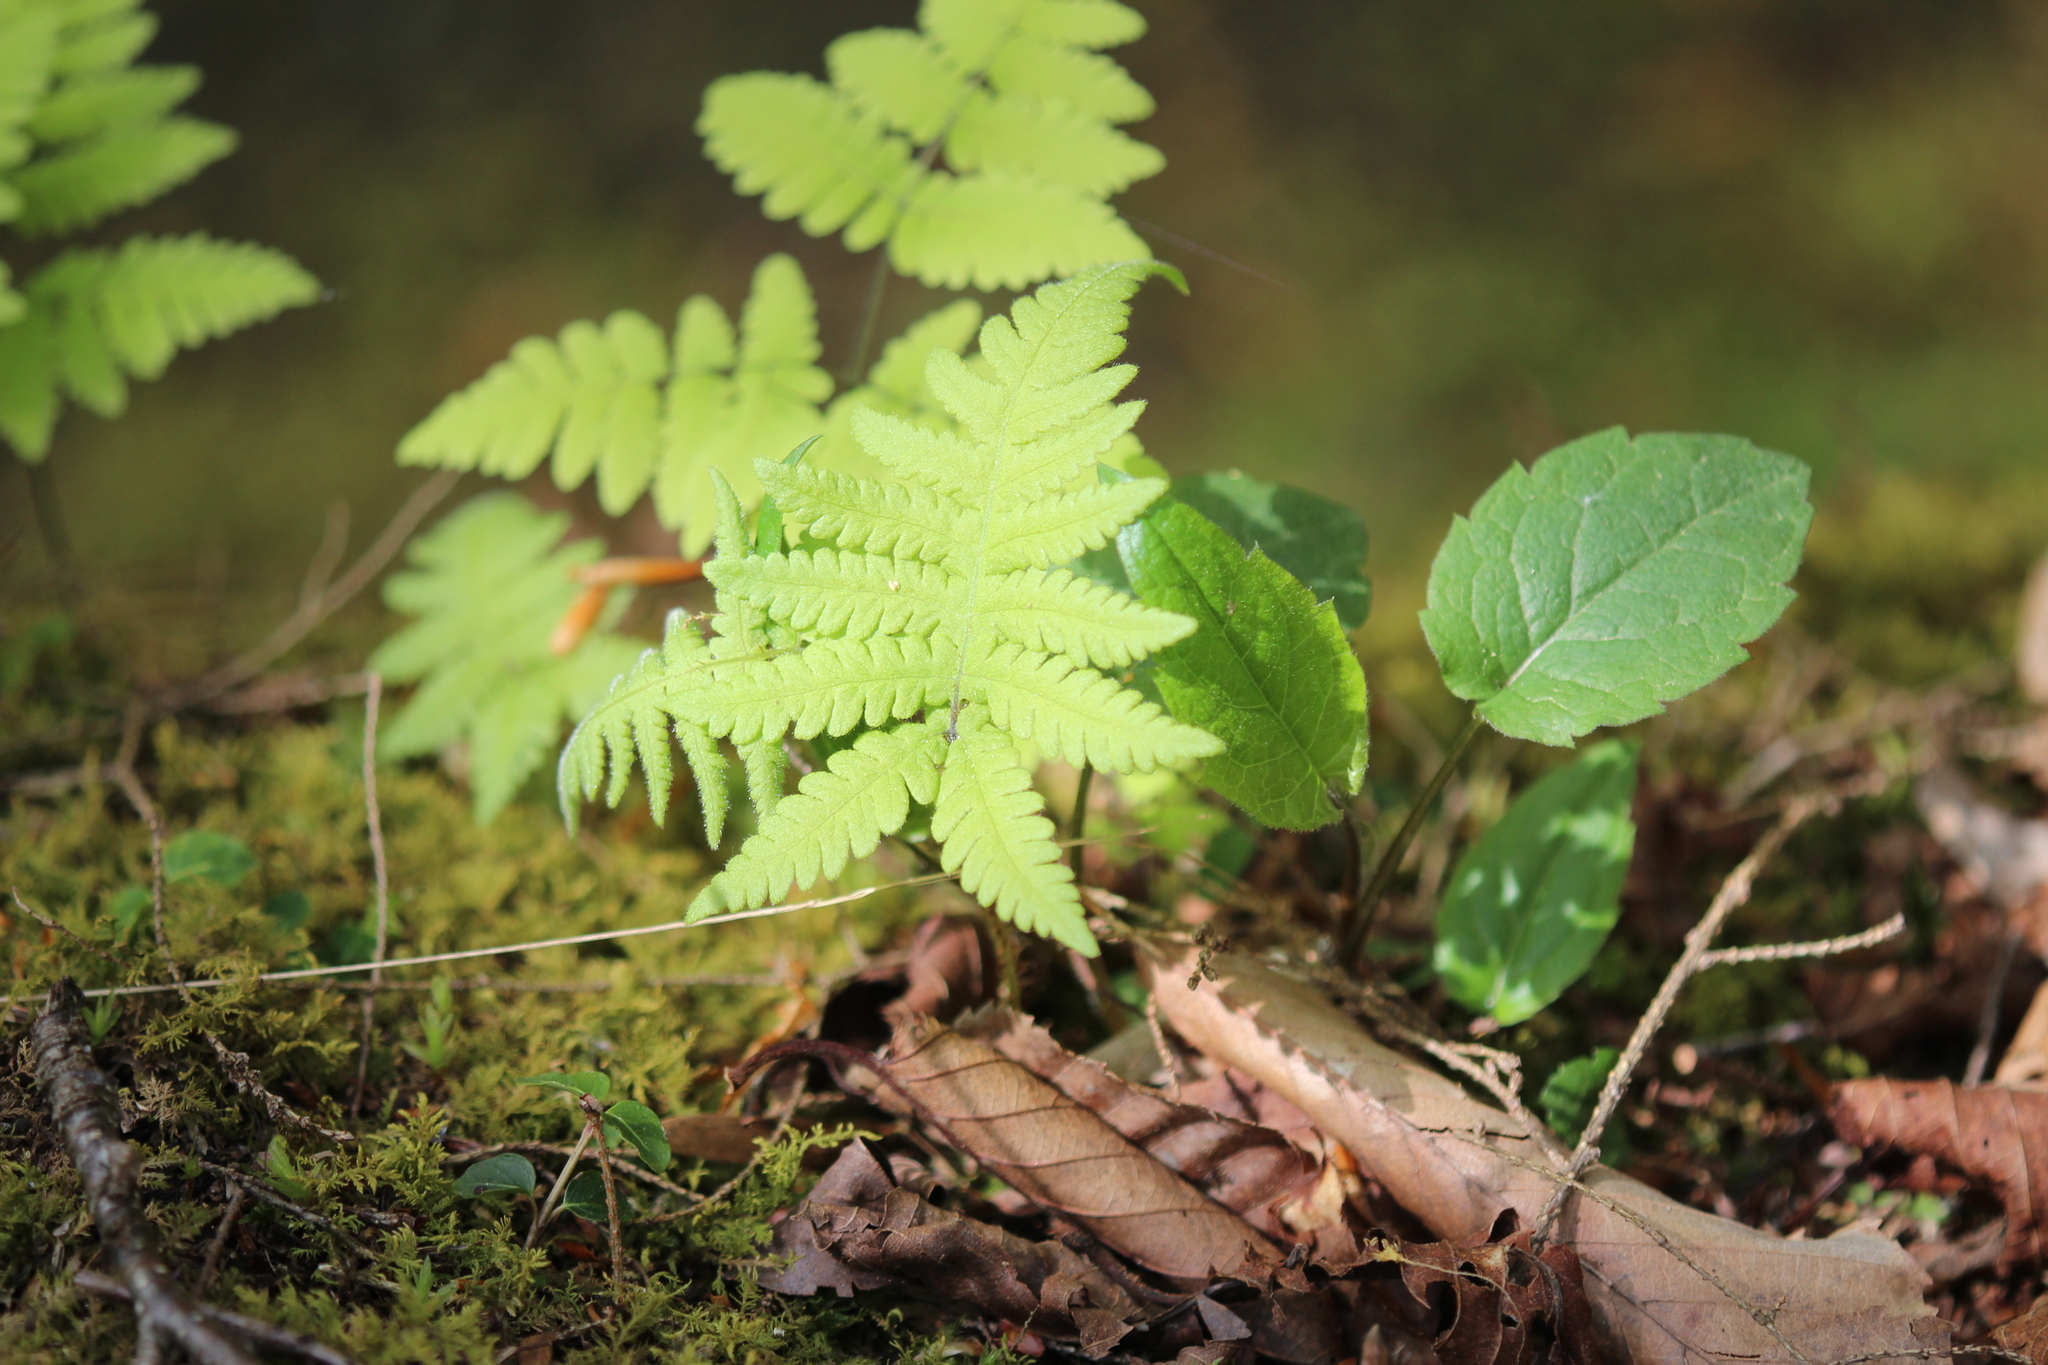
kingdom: Plantae
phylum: Tracheophyta
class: Polypodiopsida
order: Polypodiales
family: Thelypteridaceae
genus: Phegopteris
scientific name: Phegopteris connectilis
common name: Beech fern
